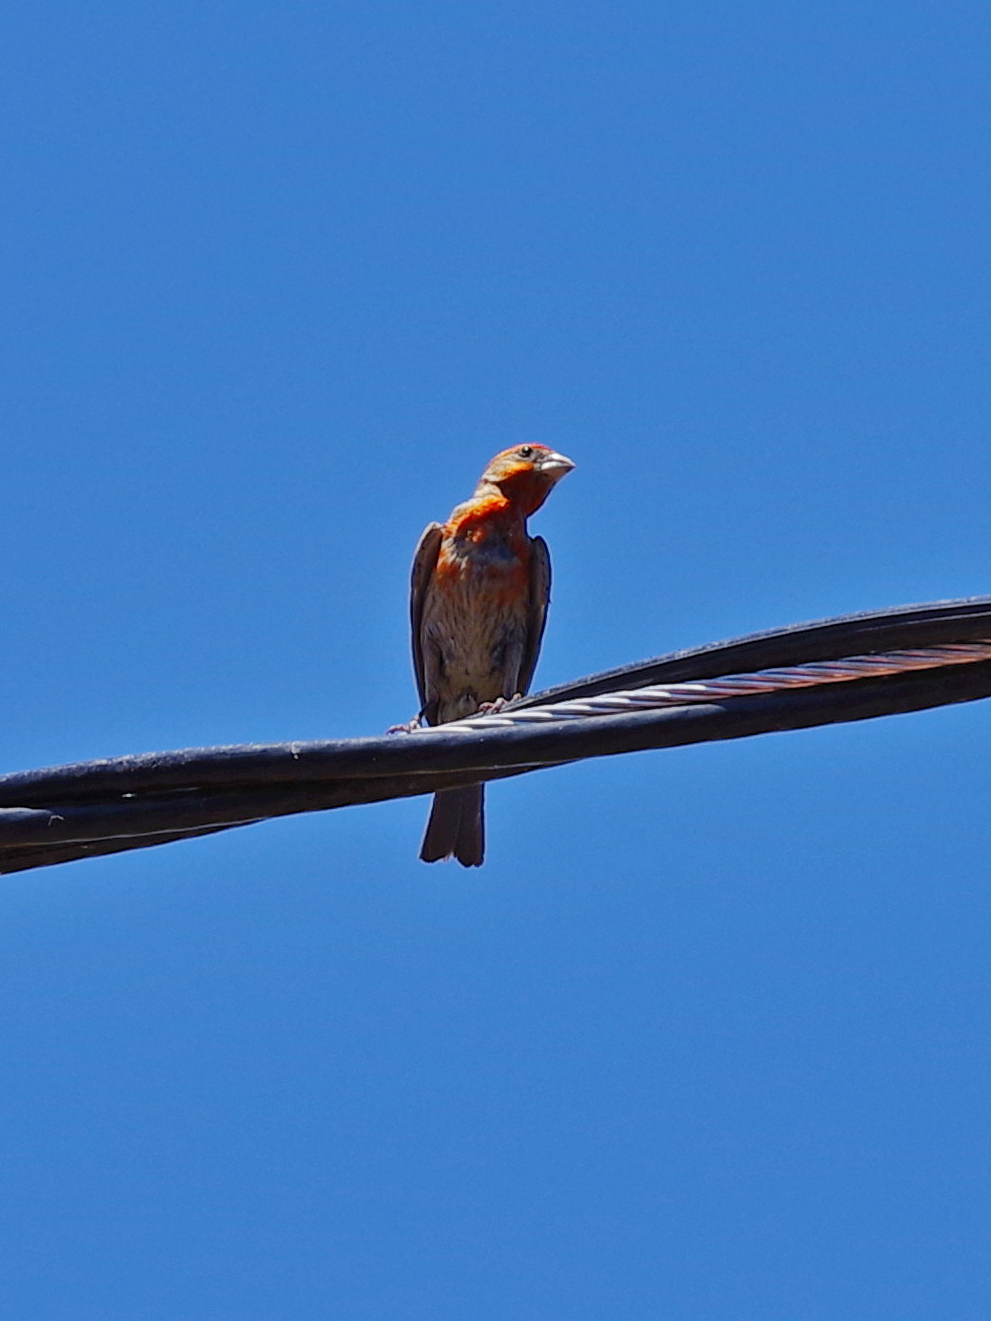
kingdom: Animalia
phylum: Chordata
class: Aves
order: Passeriformes
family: Fringillidae
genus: Haemorhous
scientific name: Haemorhous mexicanus
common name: House finch
